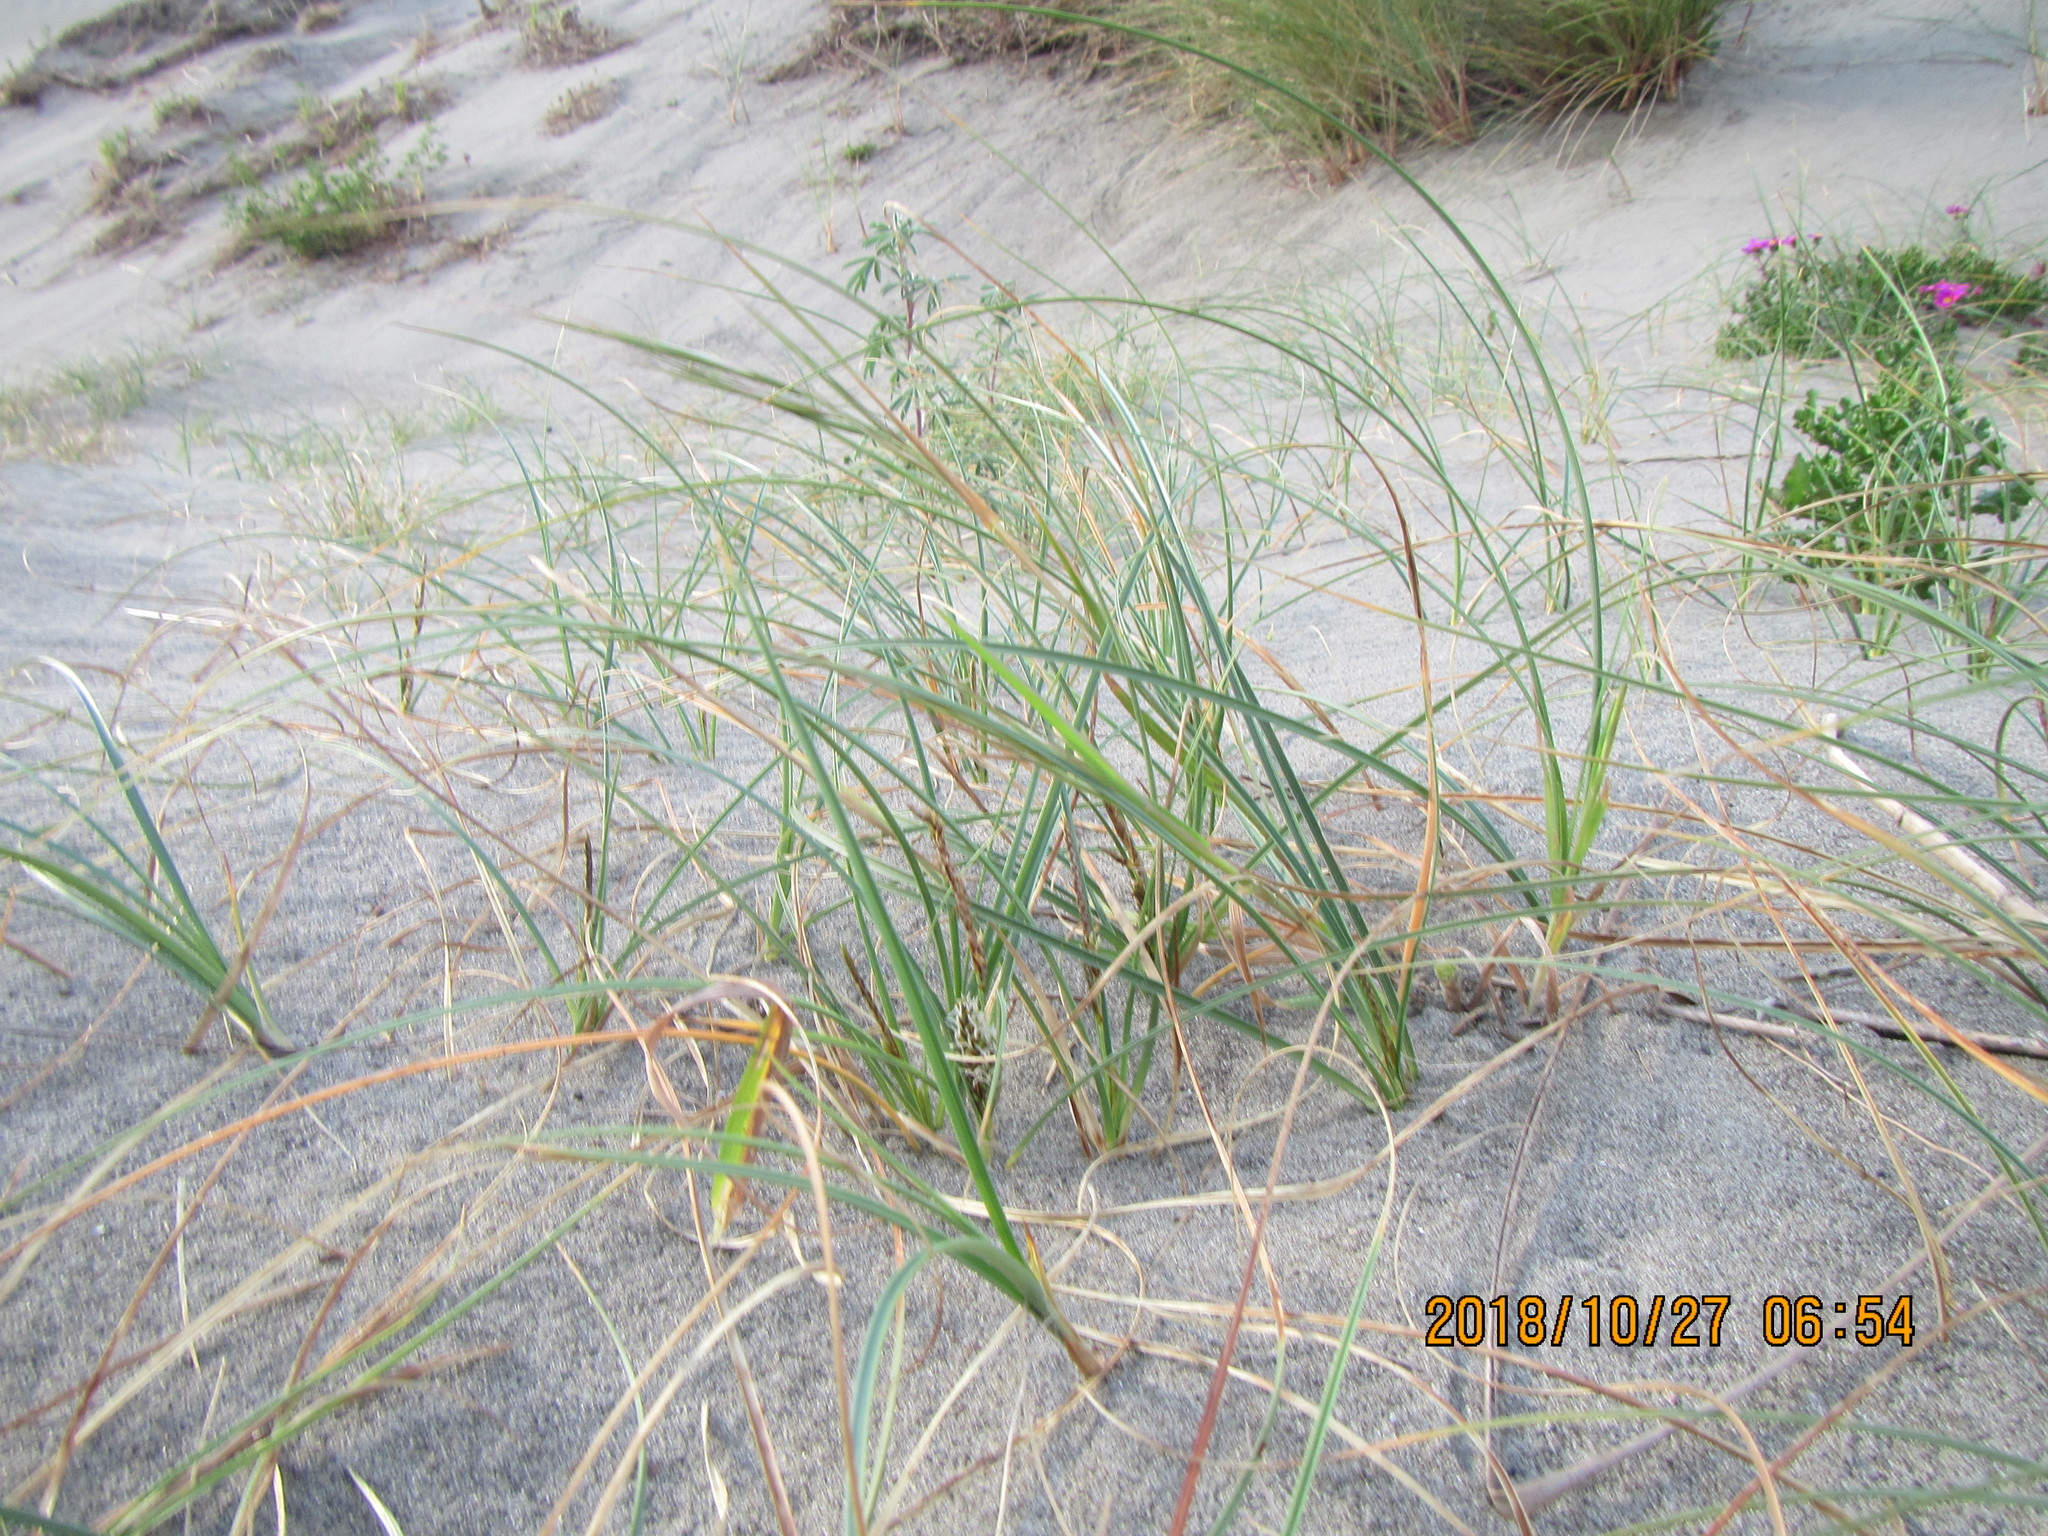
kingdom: Plantae
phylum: Tracheophyta
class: Liliopsida
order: Poales
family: Cyperaceae
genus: Carex
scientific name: Carex pumila
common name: Dwarf sedge
